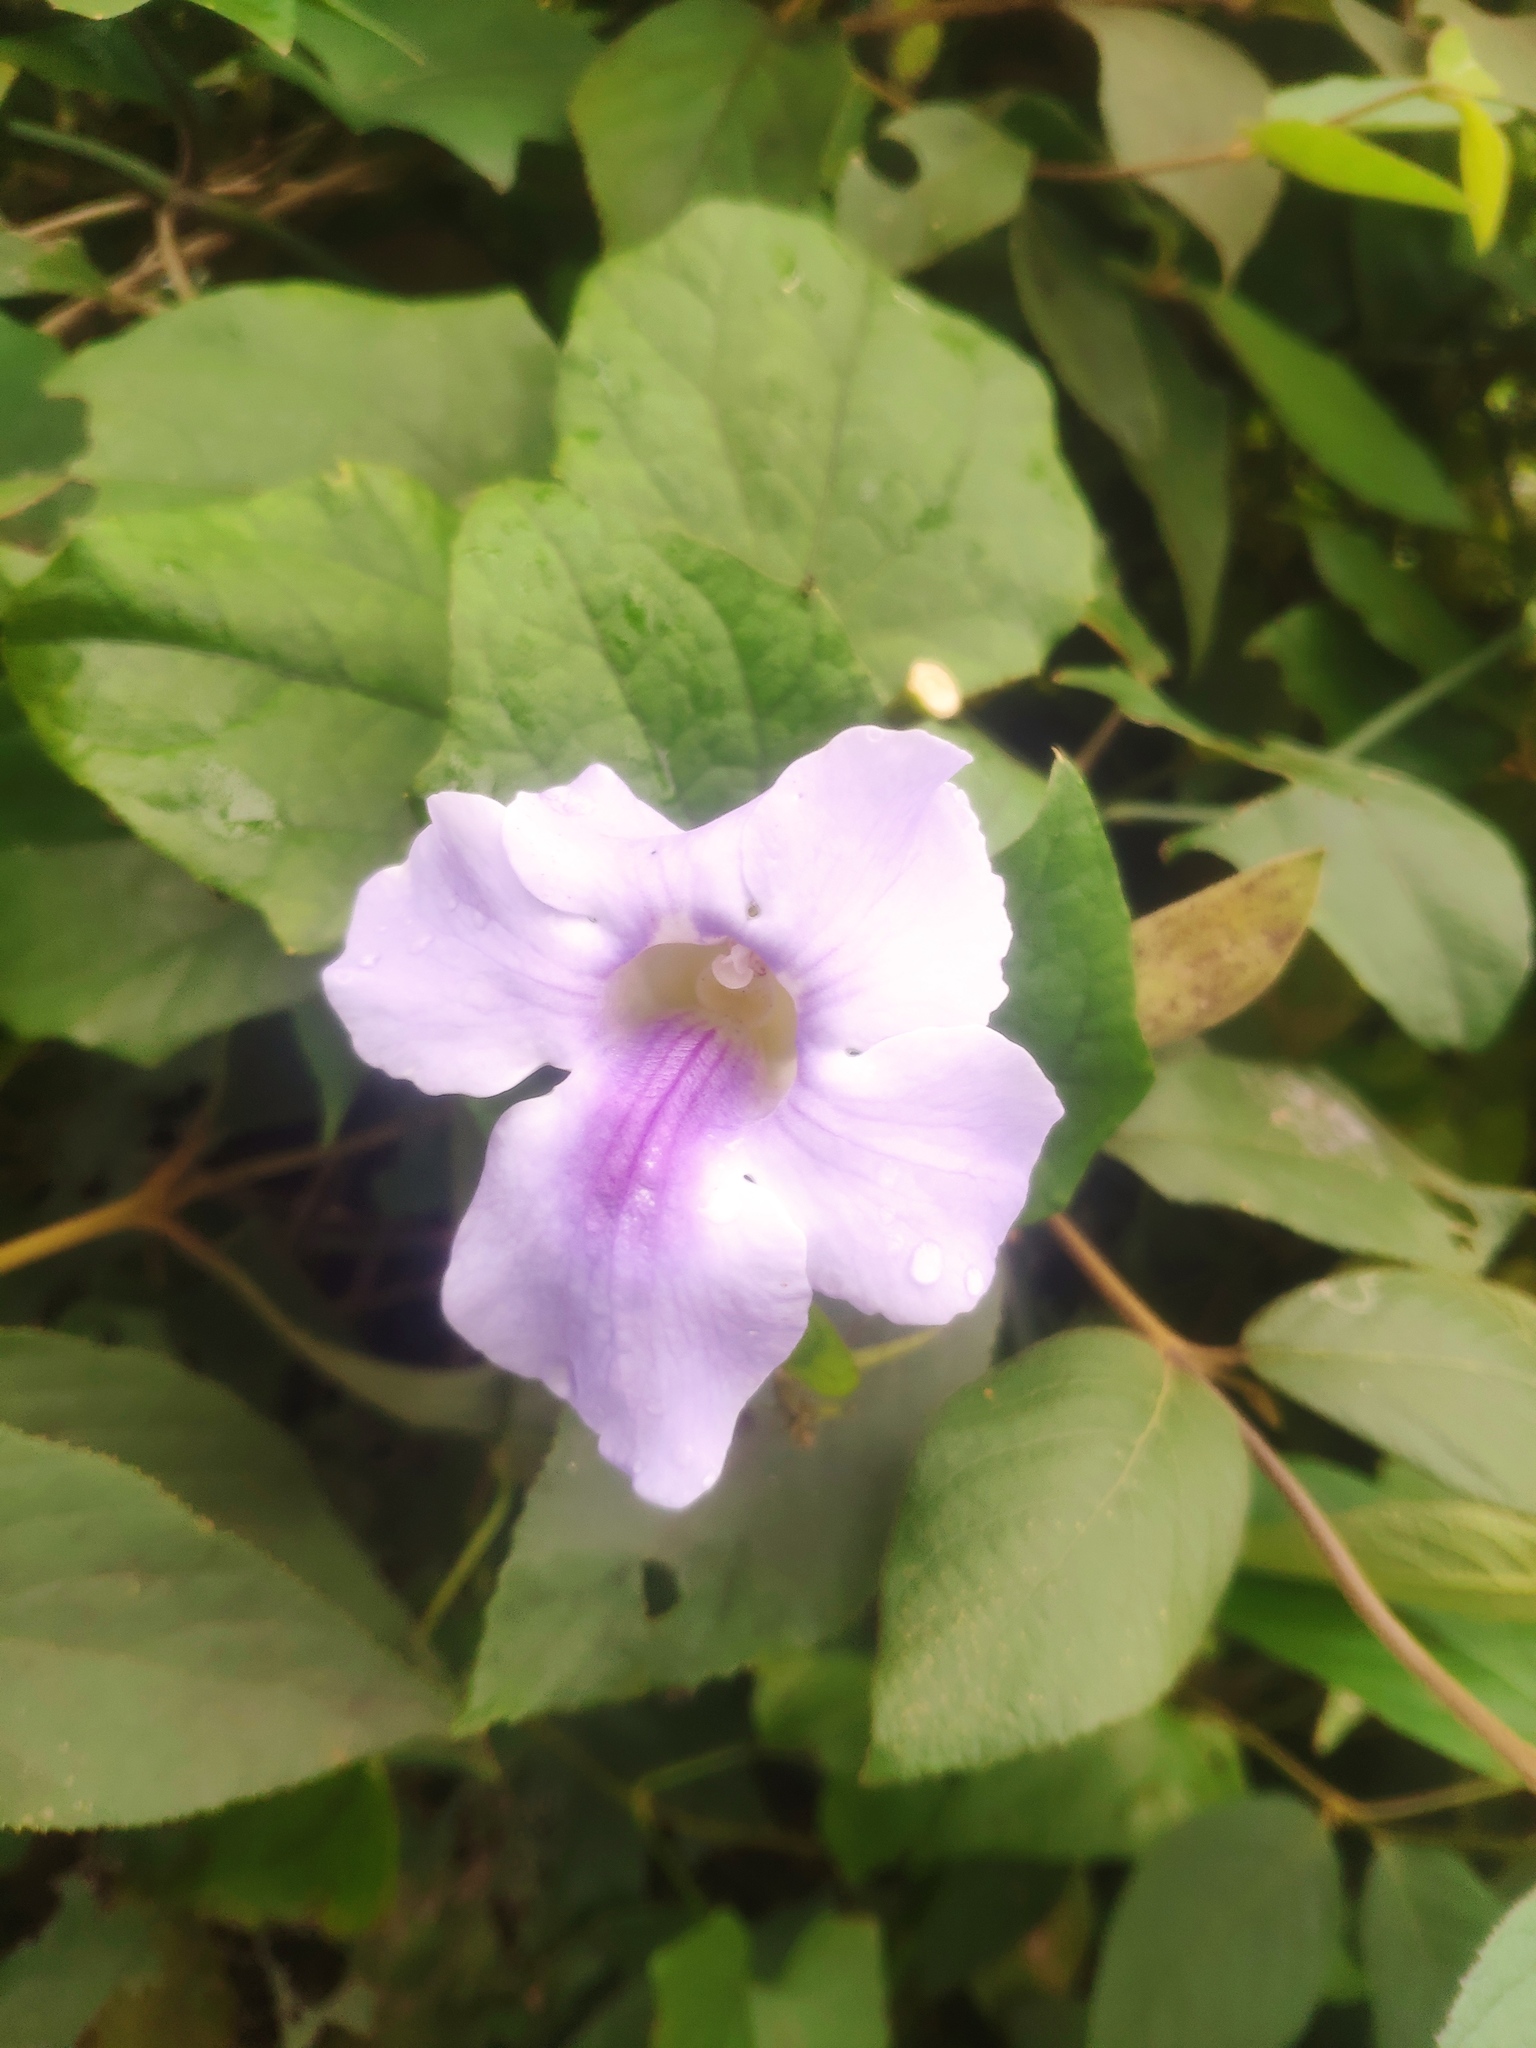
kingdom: Plantae
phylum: Tracheophyta
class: Magnoliopsida
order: Lamiales
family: Acanthaceae
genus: Thunbergia
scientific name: Thunbergia grandiflora
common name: Bengal trumpet
